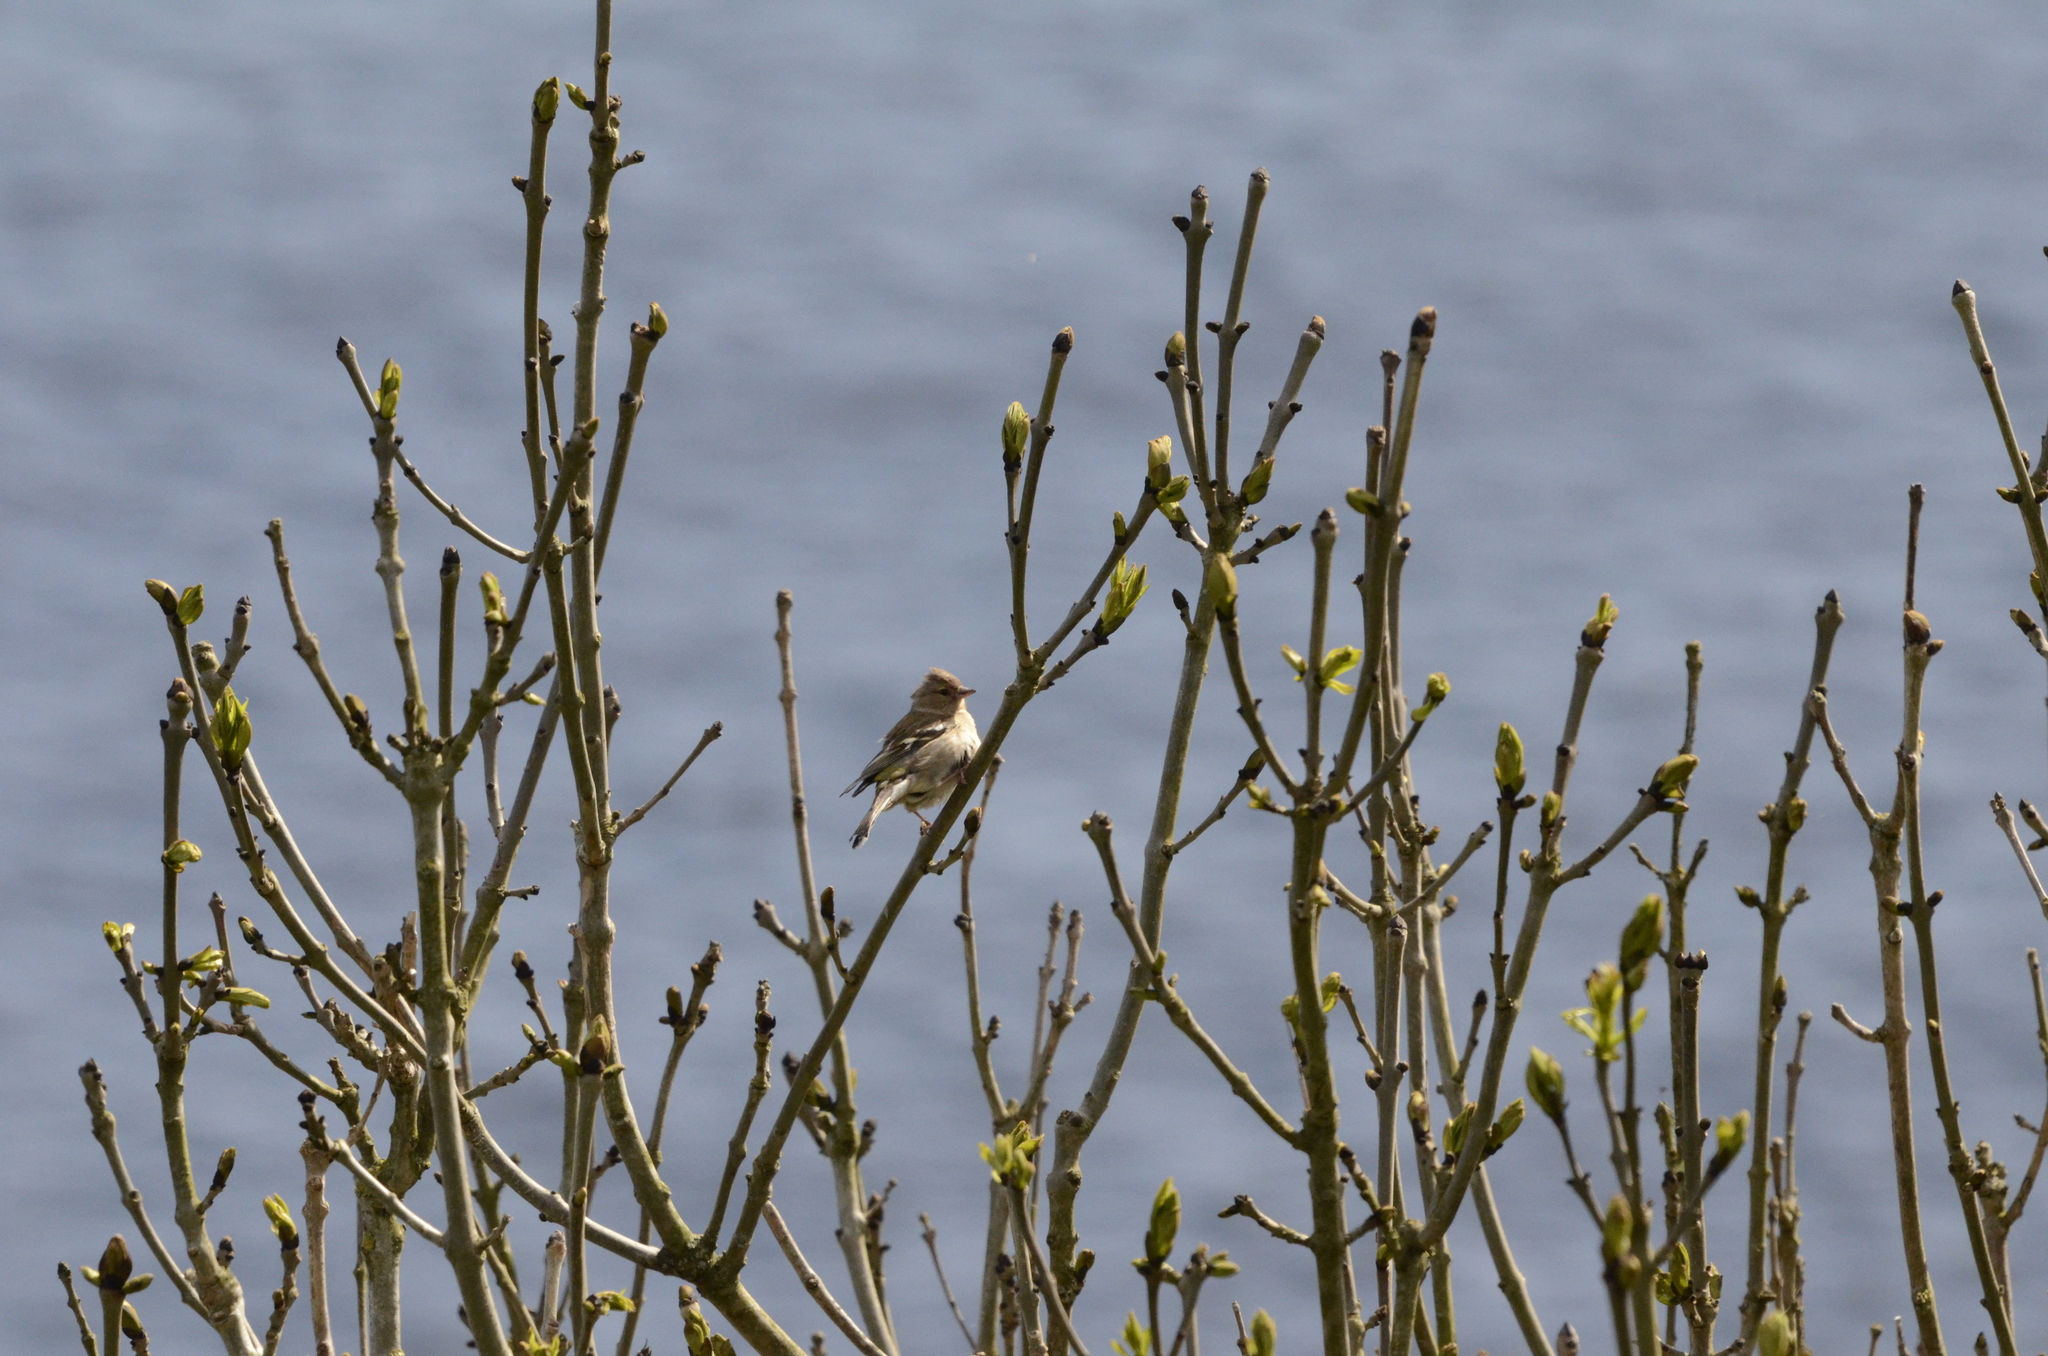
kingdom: Animalia
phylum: Chordata
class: Aves
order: Passeriformes
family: Fringillidae
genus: Fringilla
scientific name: Fringilla coelebs
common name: Common chaffinch
